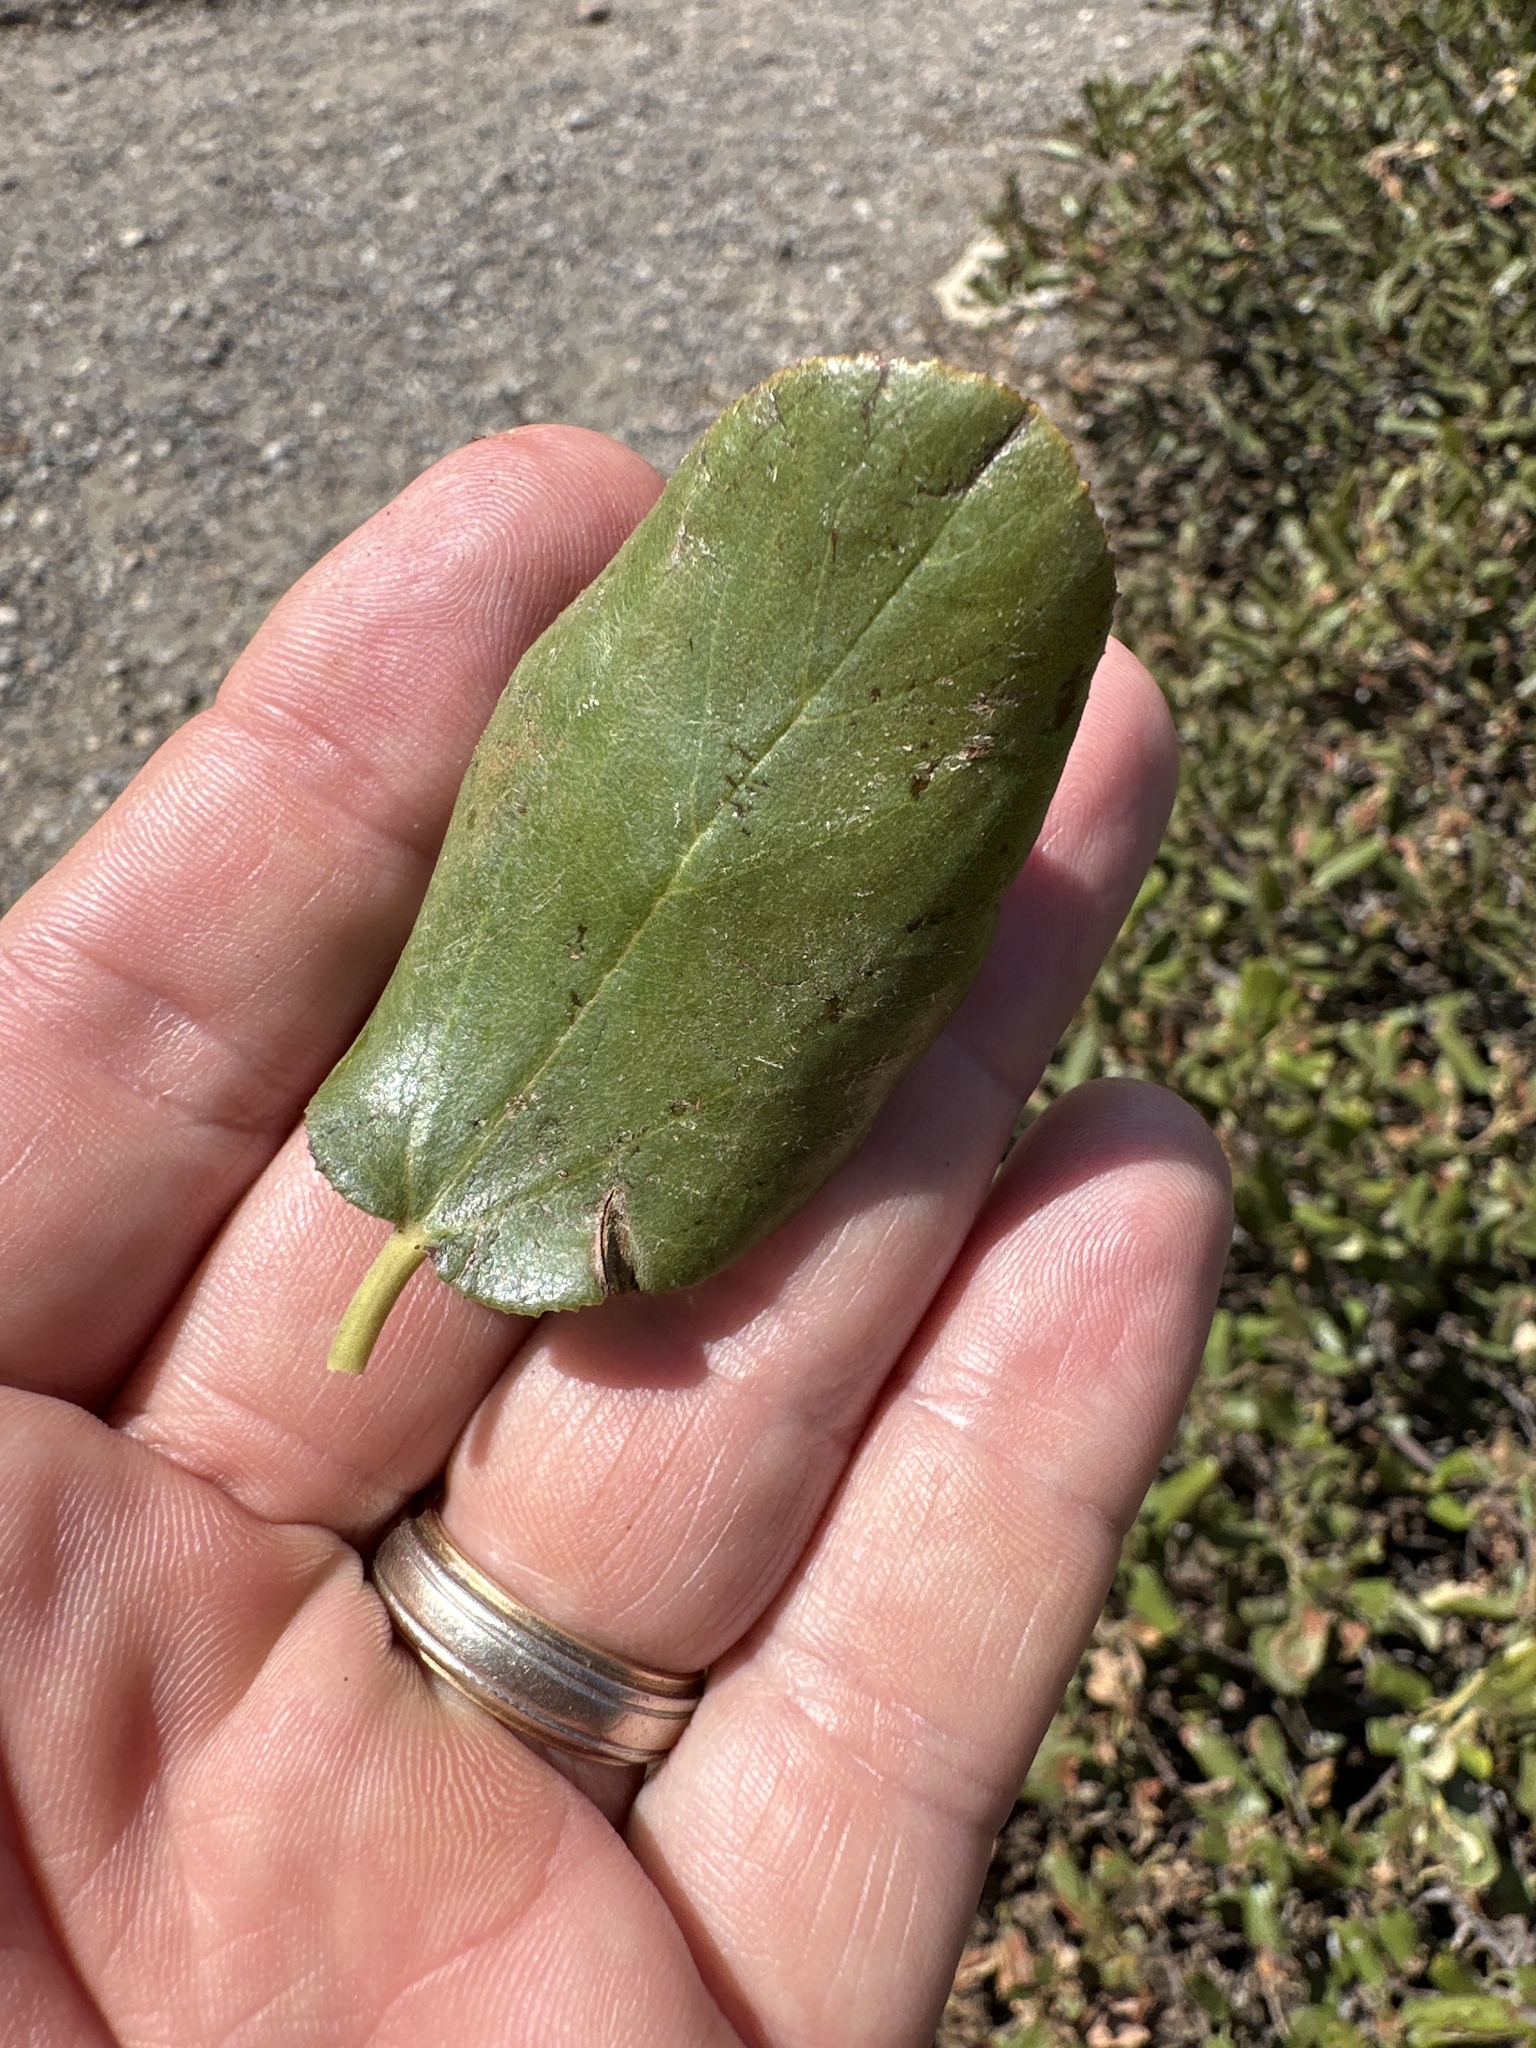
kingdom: Plantae
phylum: Tracheophyta
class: Magnoliopsida
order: Rosales
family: Rhamnaceae
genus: Ceanothus
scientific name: Ceanothus velutinus
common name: Snowbrush
